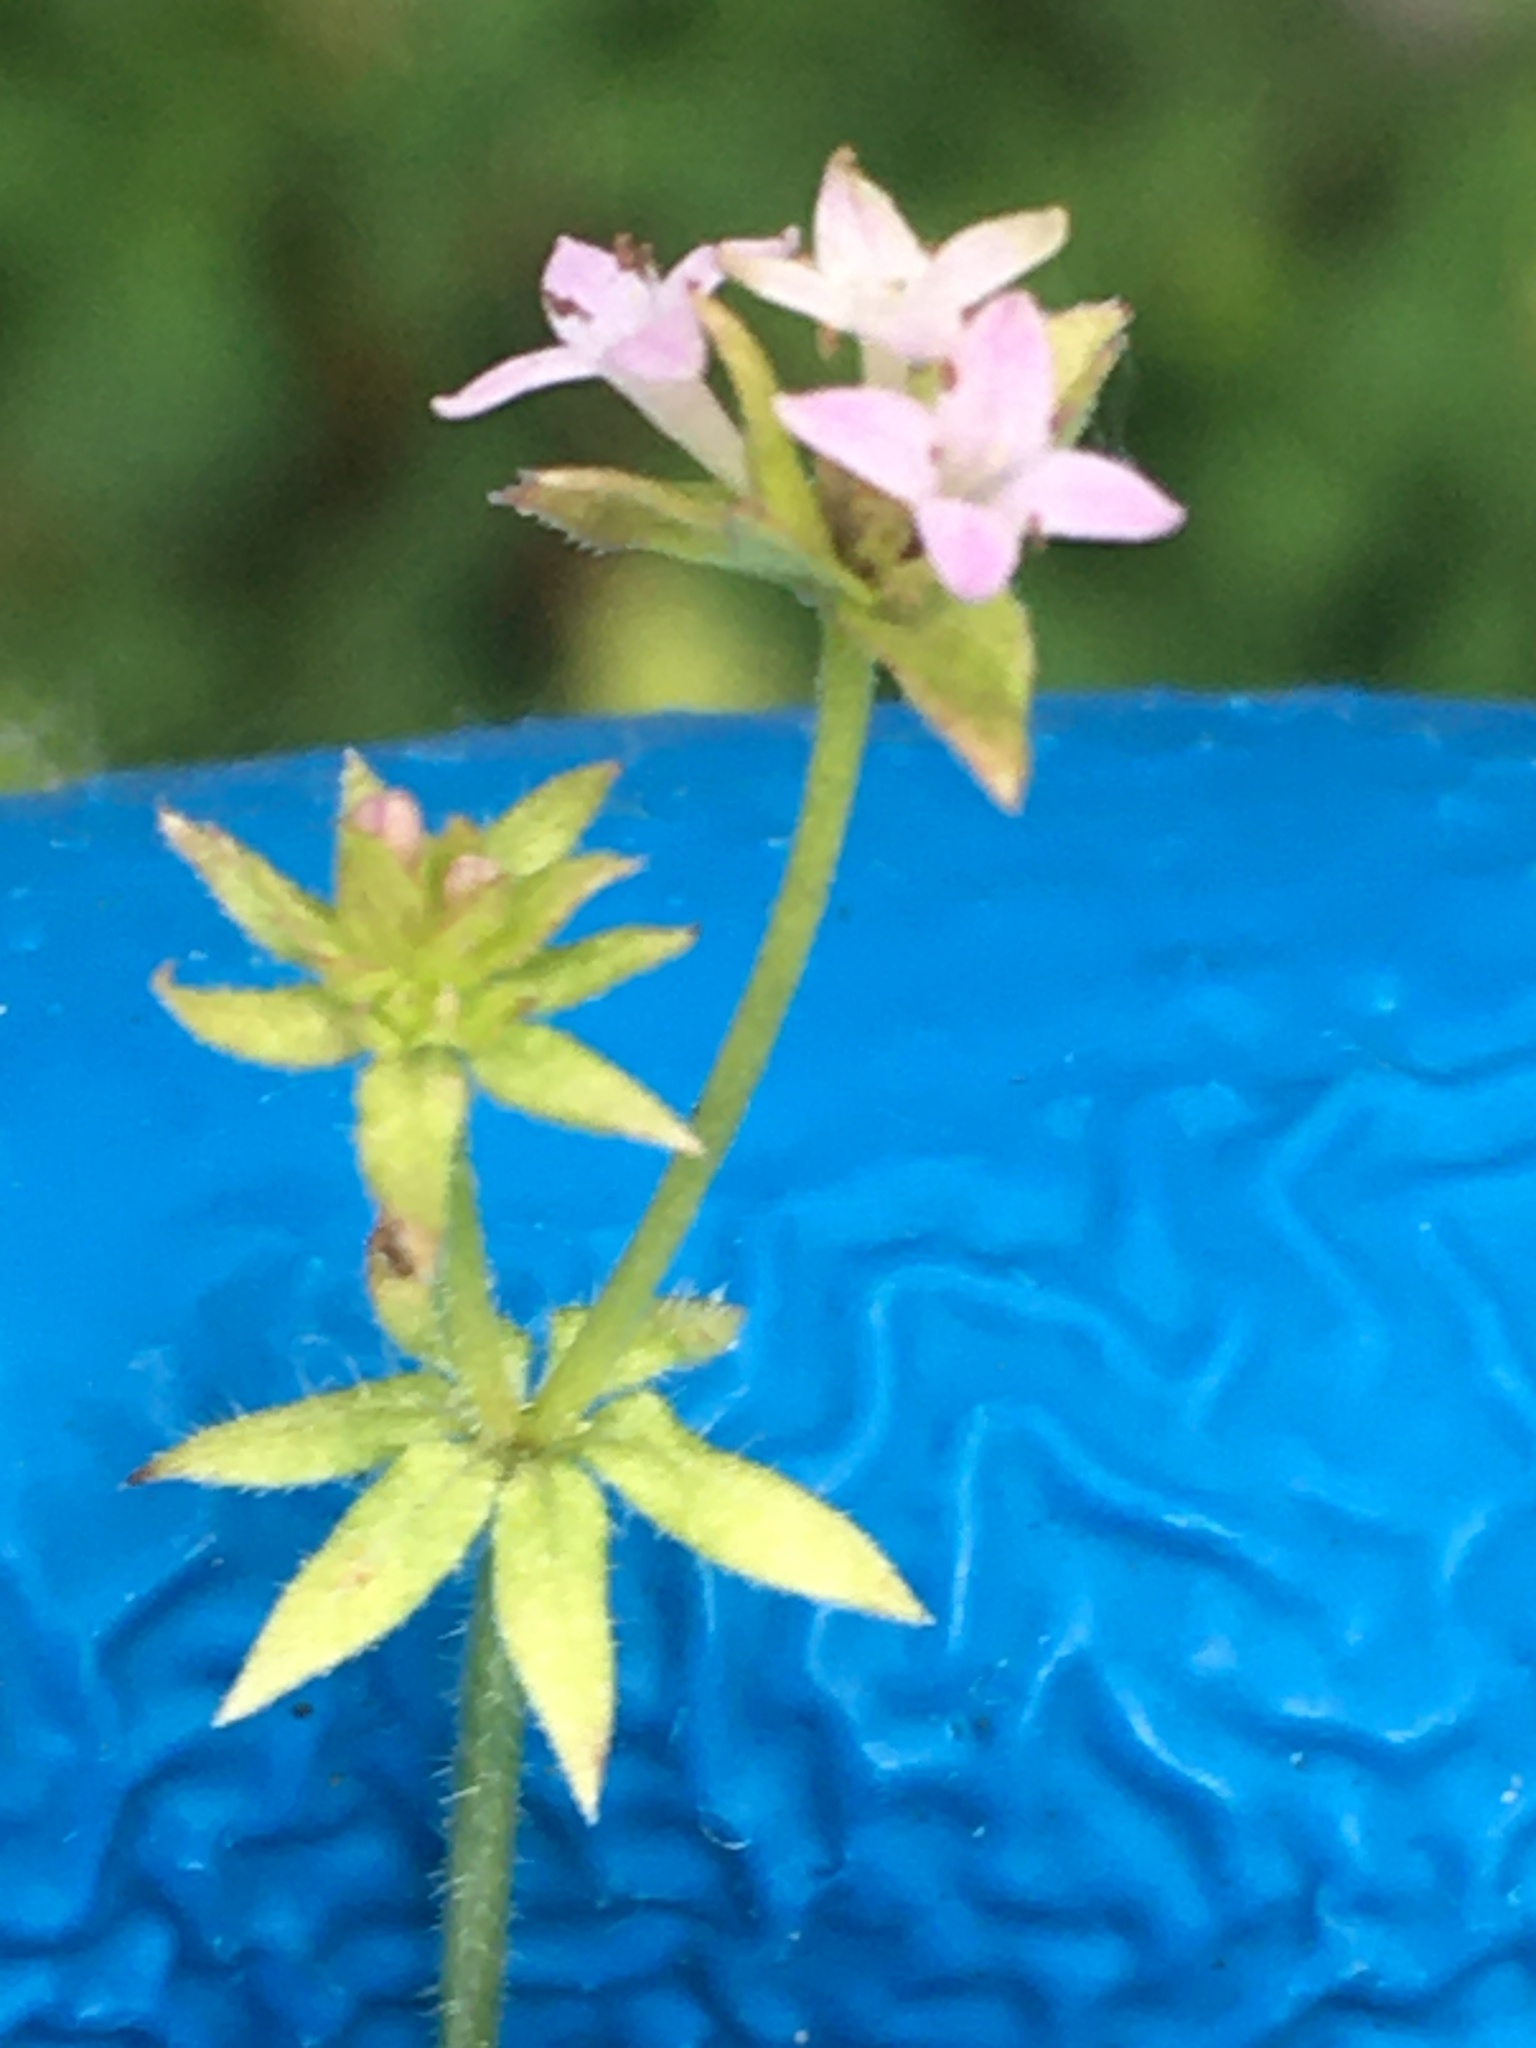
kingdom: Plantae
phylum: Tracheophyta
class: Magnoliopsida
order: Gentianales
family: Rubiaceae
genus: Sherardia
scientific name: Sherardia arvensis
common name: Field madder
